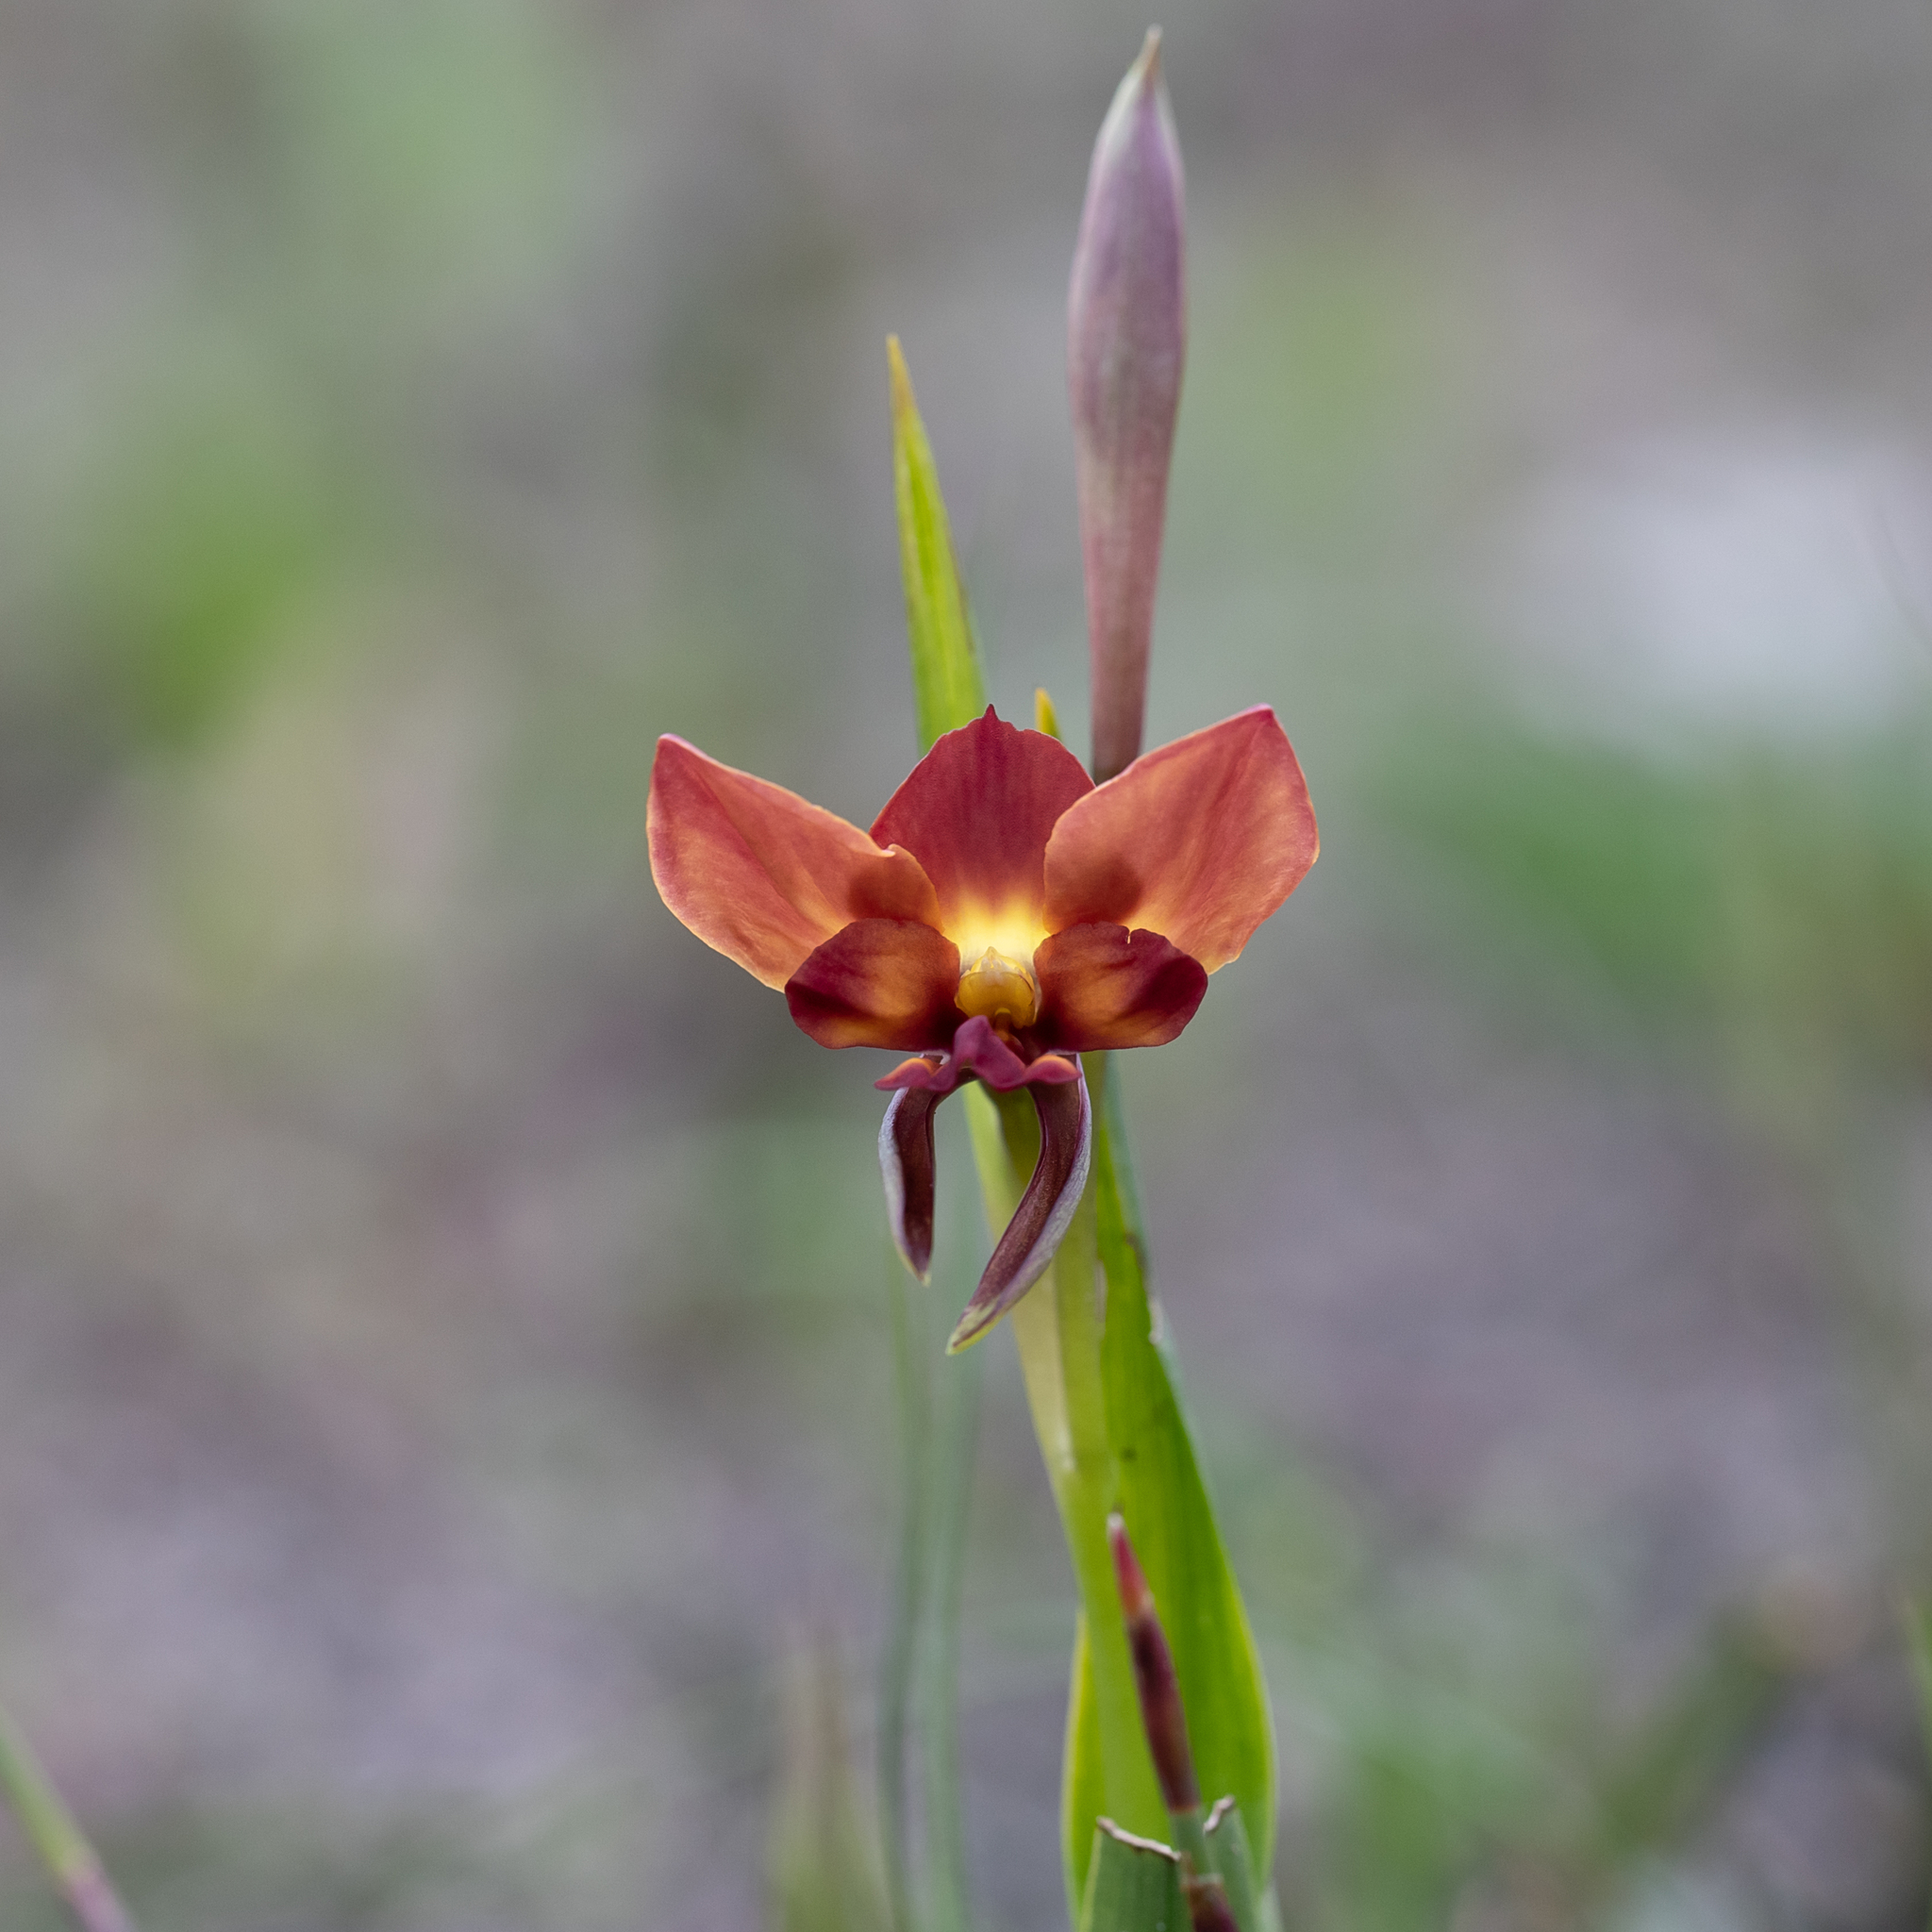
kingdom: Plantae
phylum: Tracheophyta
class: Liliopsida
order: Asparagales
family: Orchidaceae
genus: Diuris
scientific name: Diuris orientis
